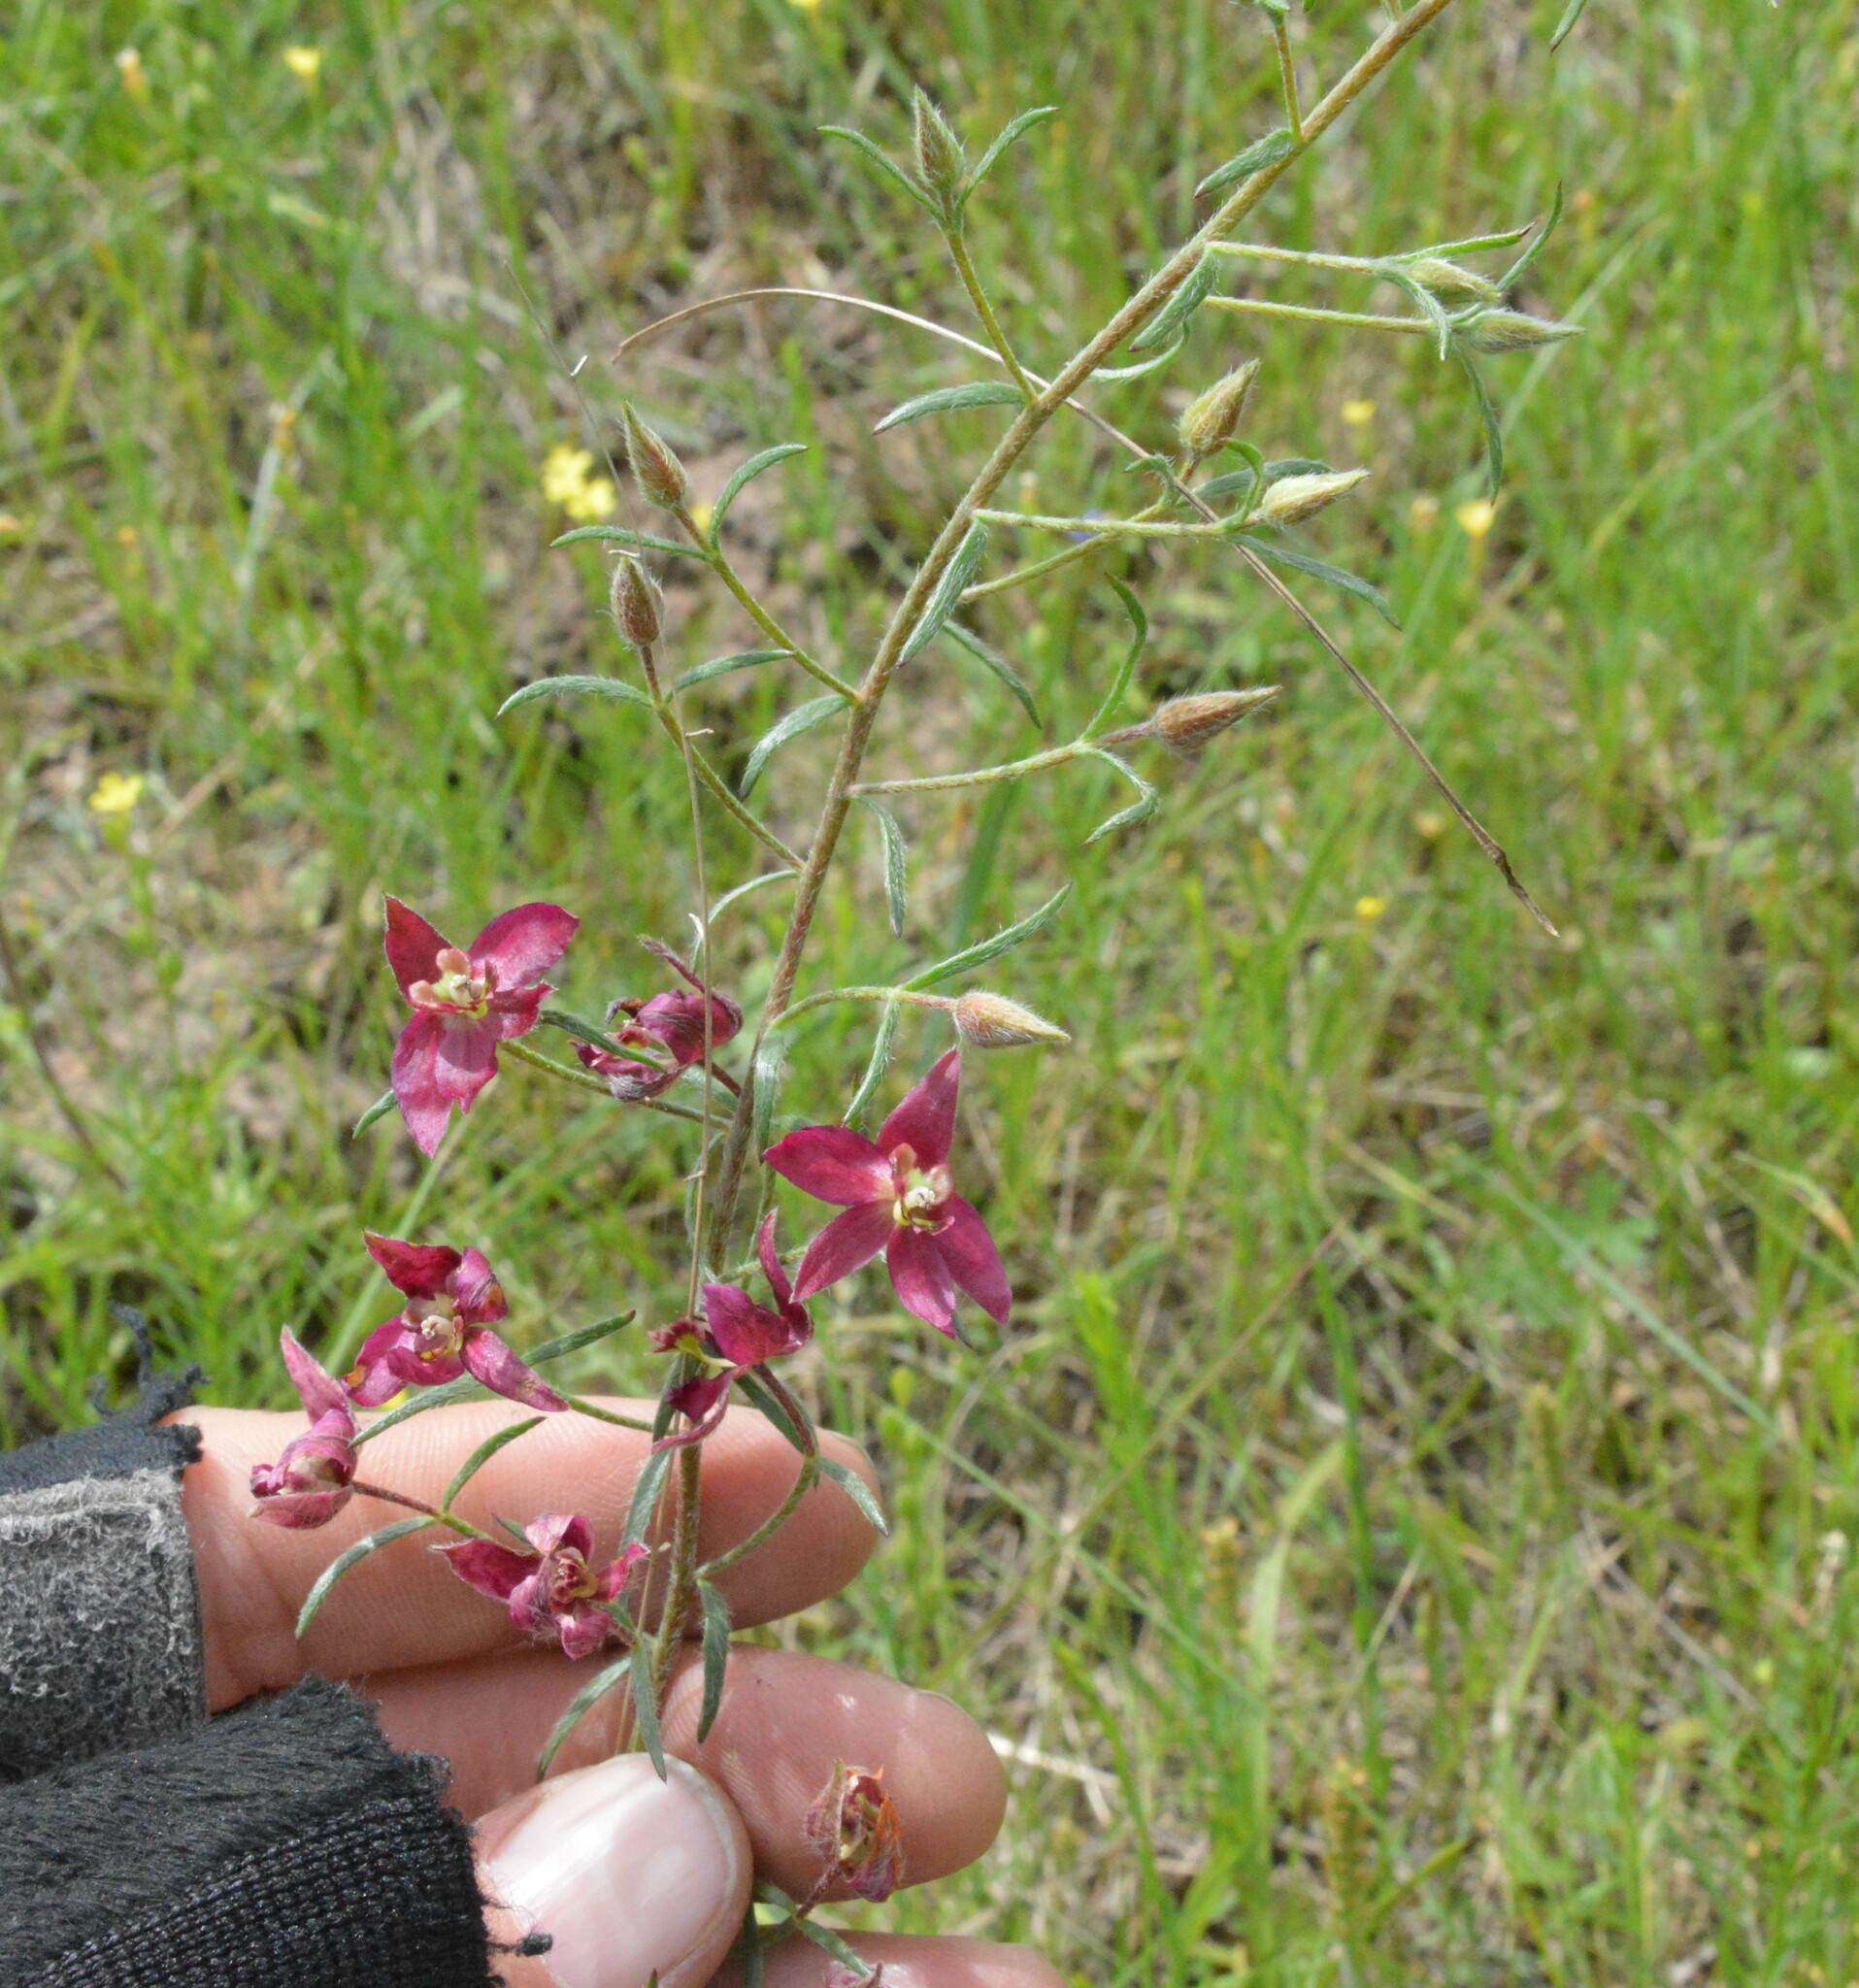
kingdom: Plantae
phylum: Tracheophyta
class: Magnoliopsida
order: Zygophyllales
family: Krameriaceae
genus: Krameria
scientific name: Krameria lanceolata
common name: Ratany
